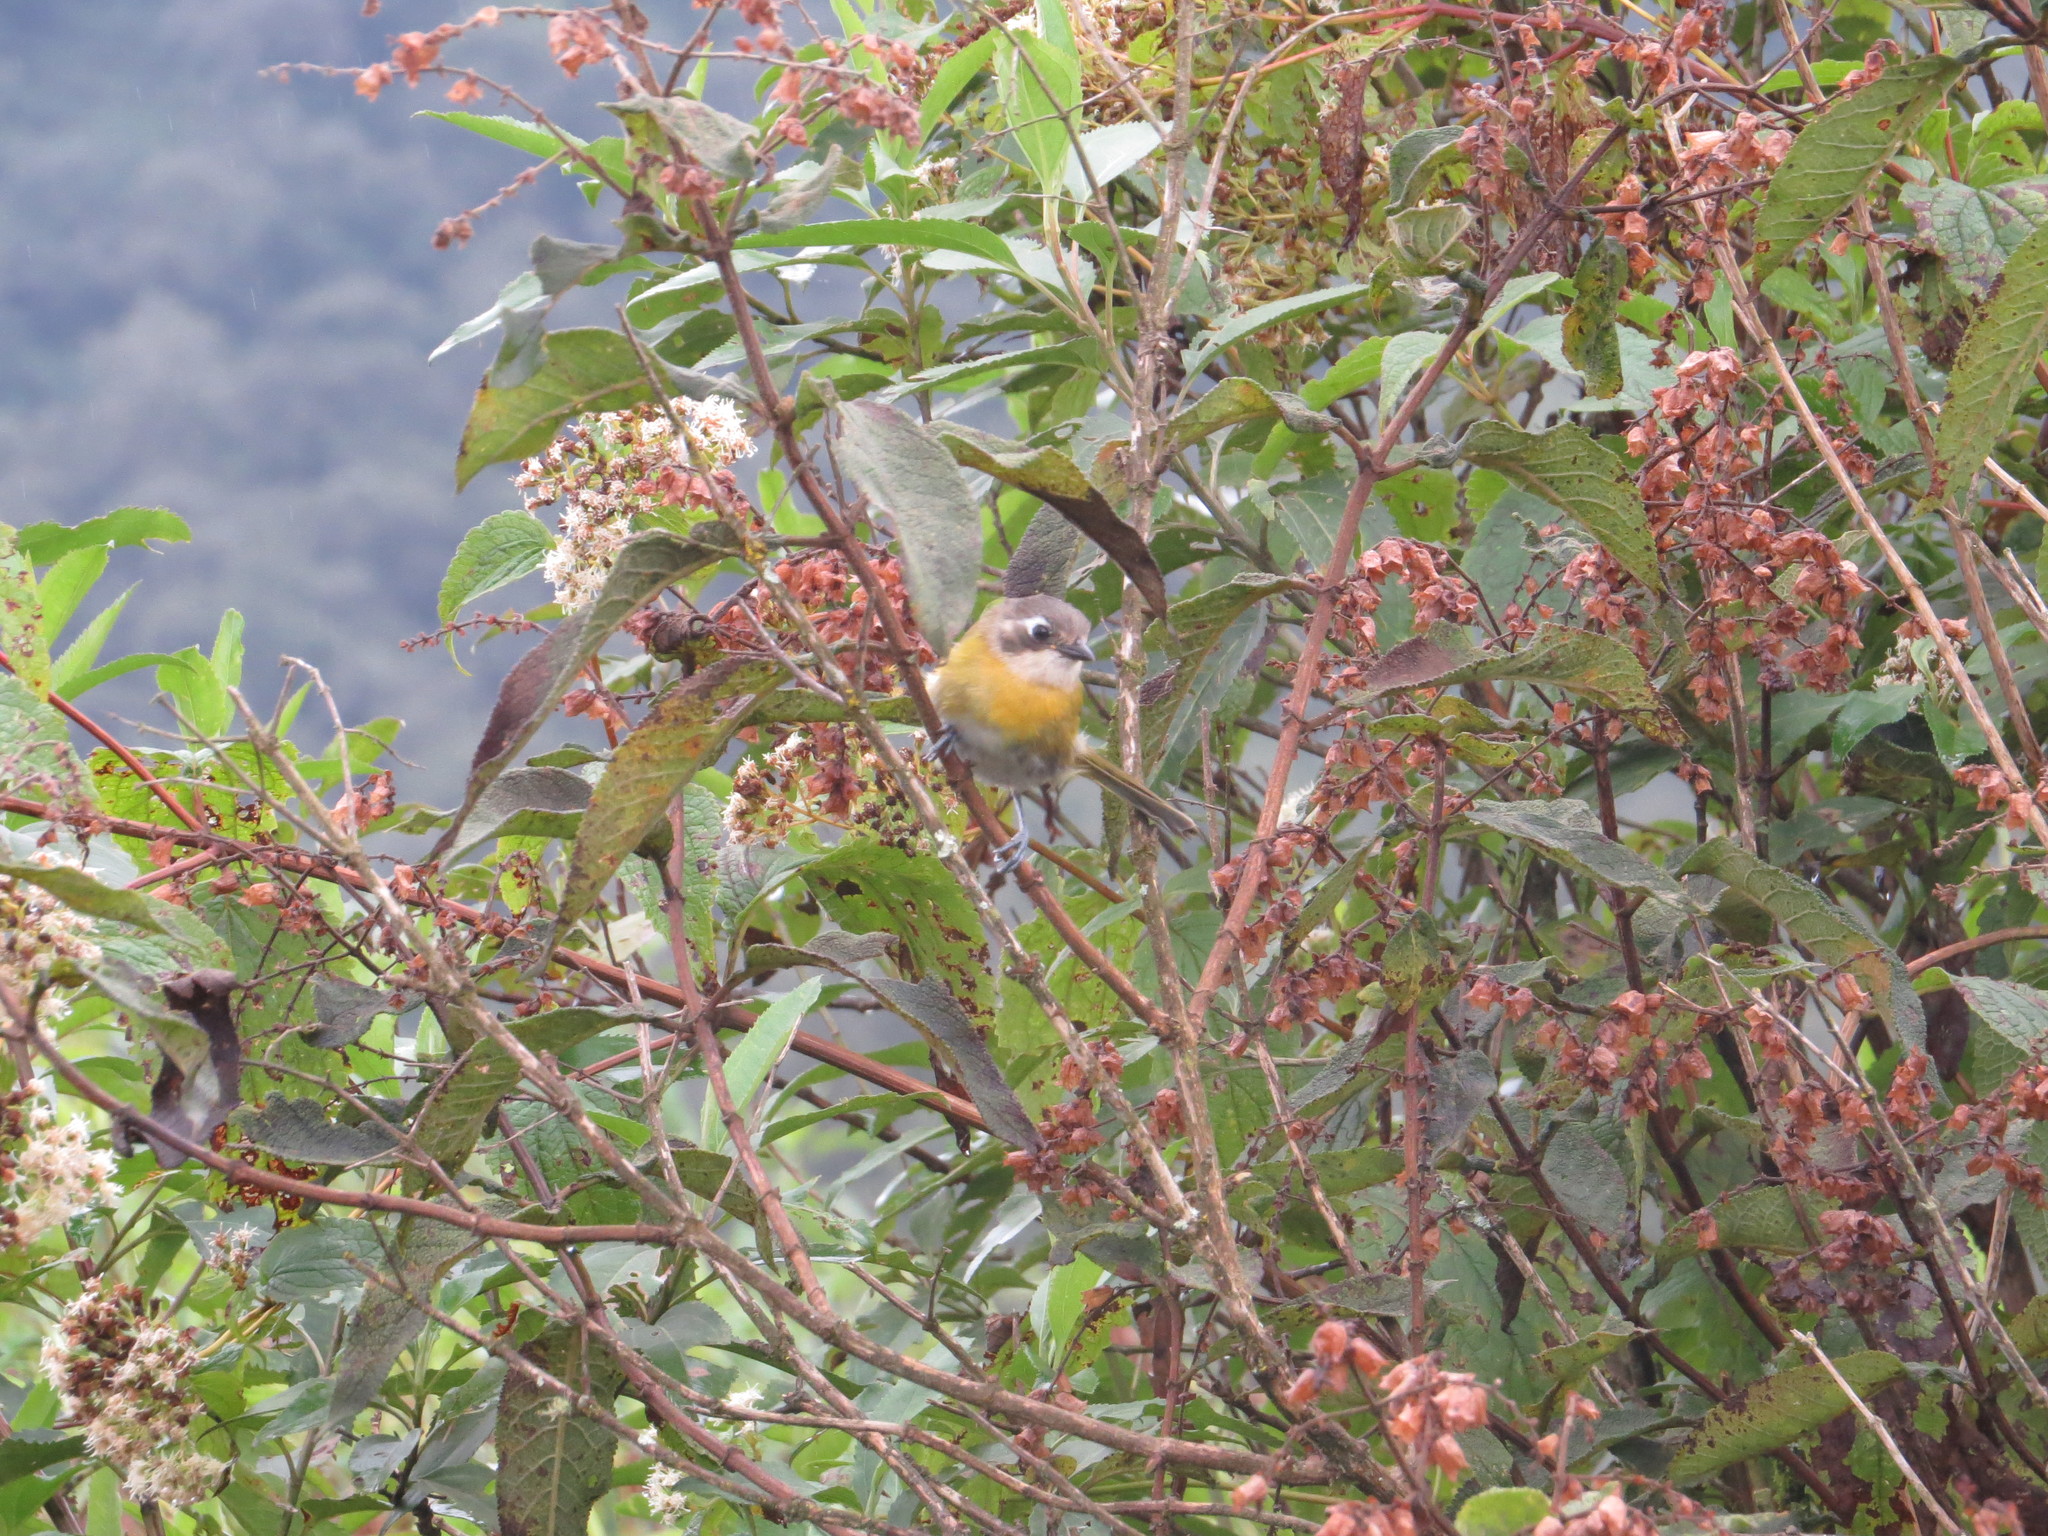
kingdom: Animalia
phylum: Chordata
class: Aves
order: Passeriformes
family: Passerellidae
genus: Chlorospingus
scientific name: Chlorospingus flavopectus
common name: Common chlorospingus
